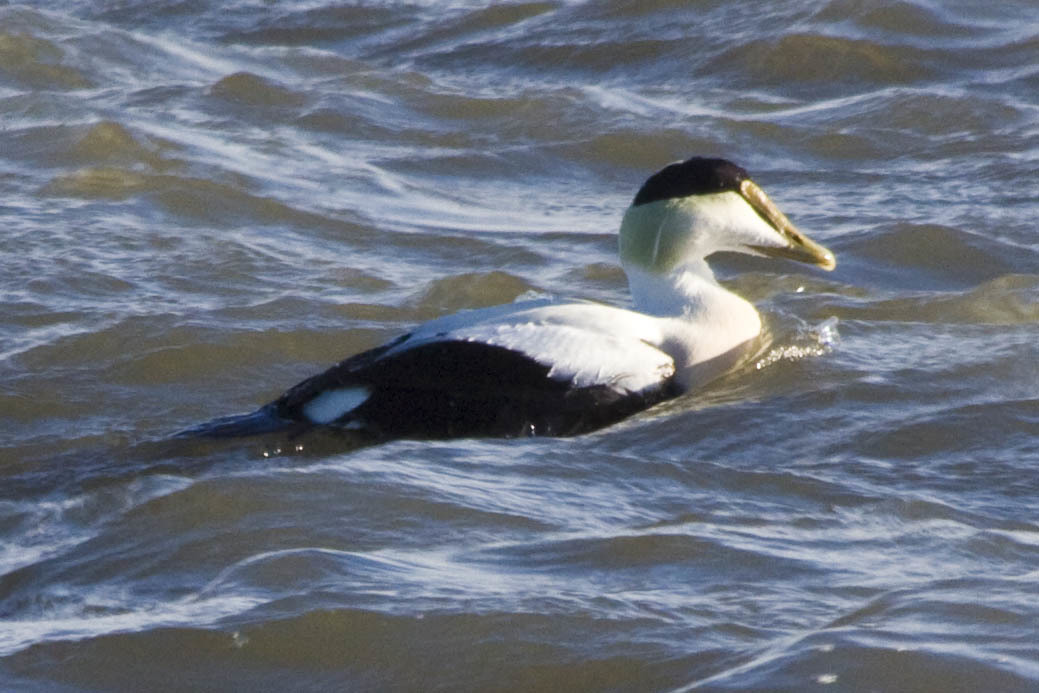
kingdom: Animalia
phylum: Chordata
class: Aves
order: Anseriformes
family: Anatidae
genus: Somateria
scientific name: Somateria mollissima
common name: Common eider
